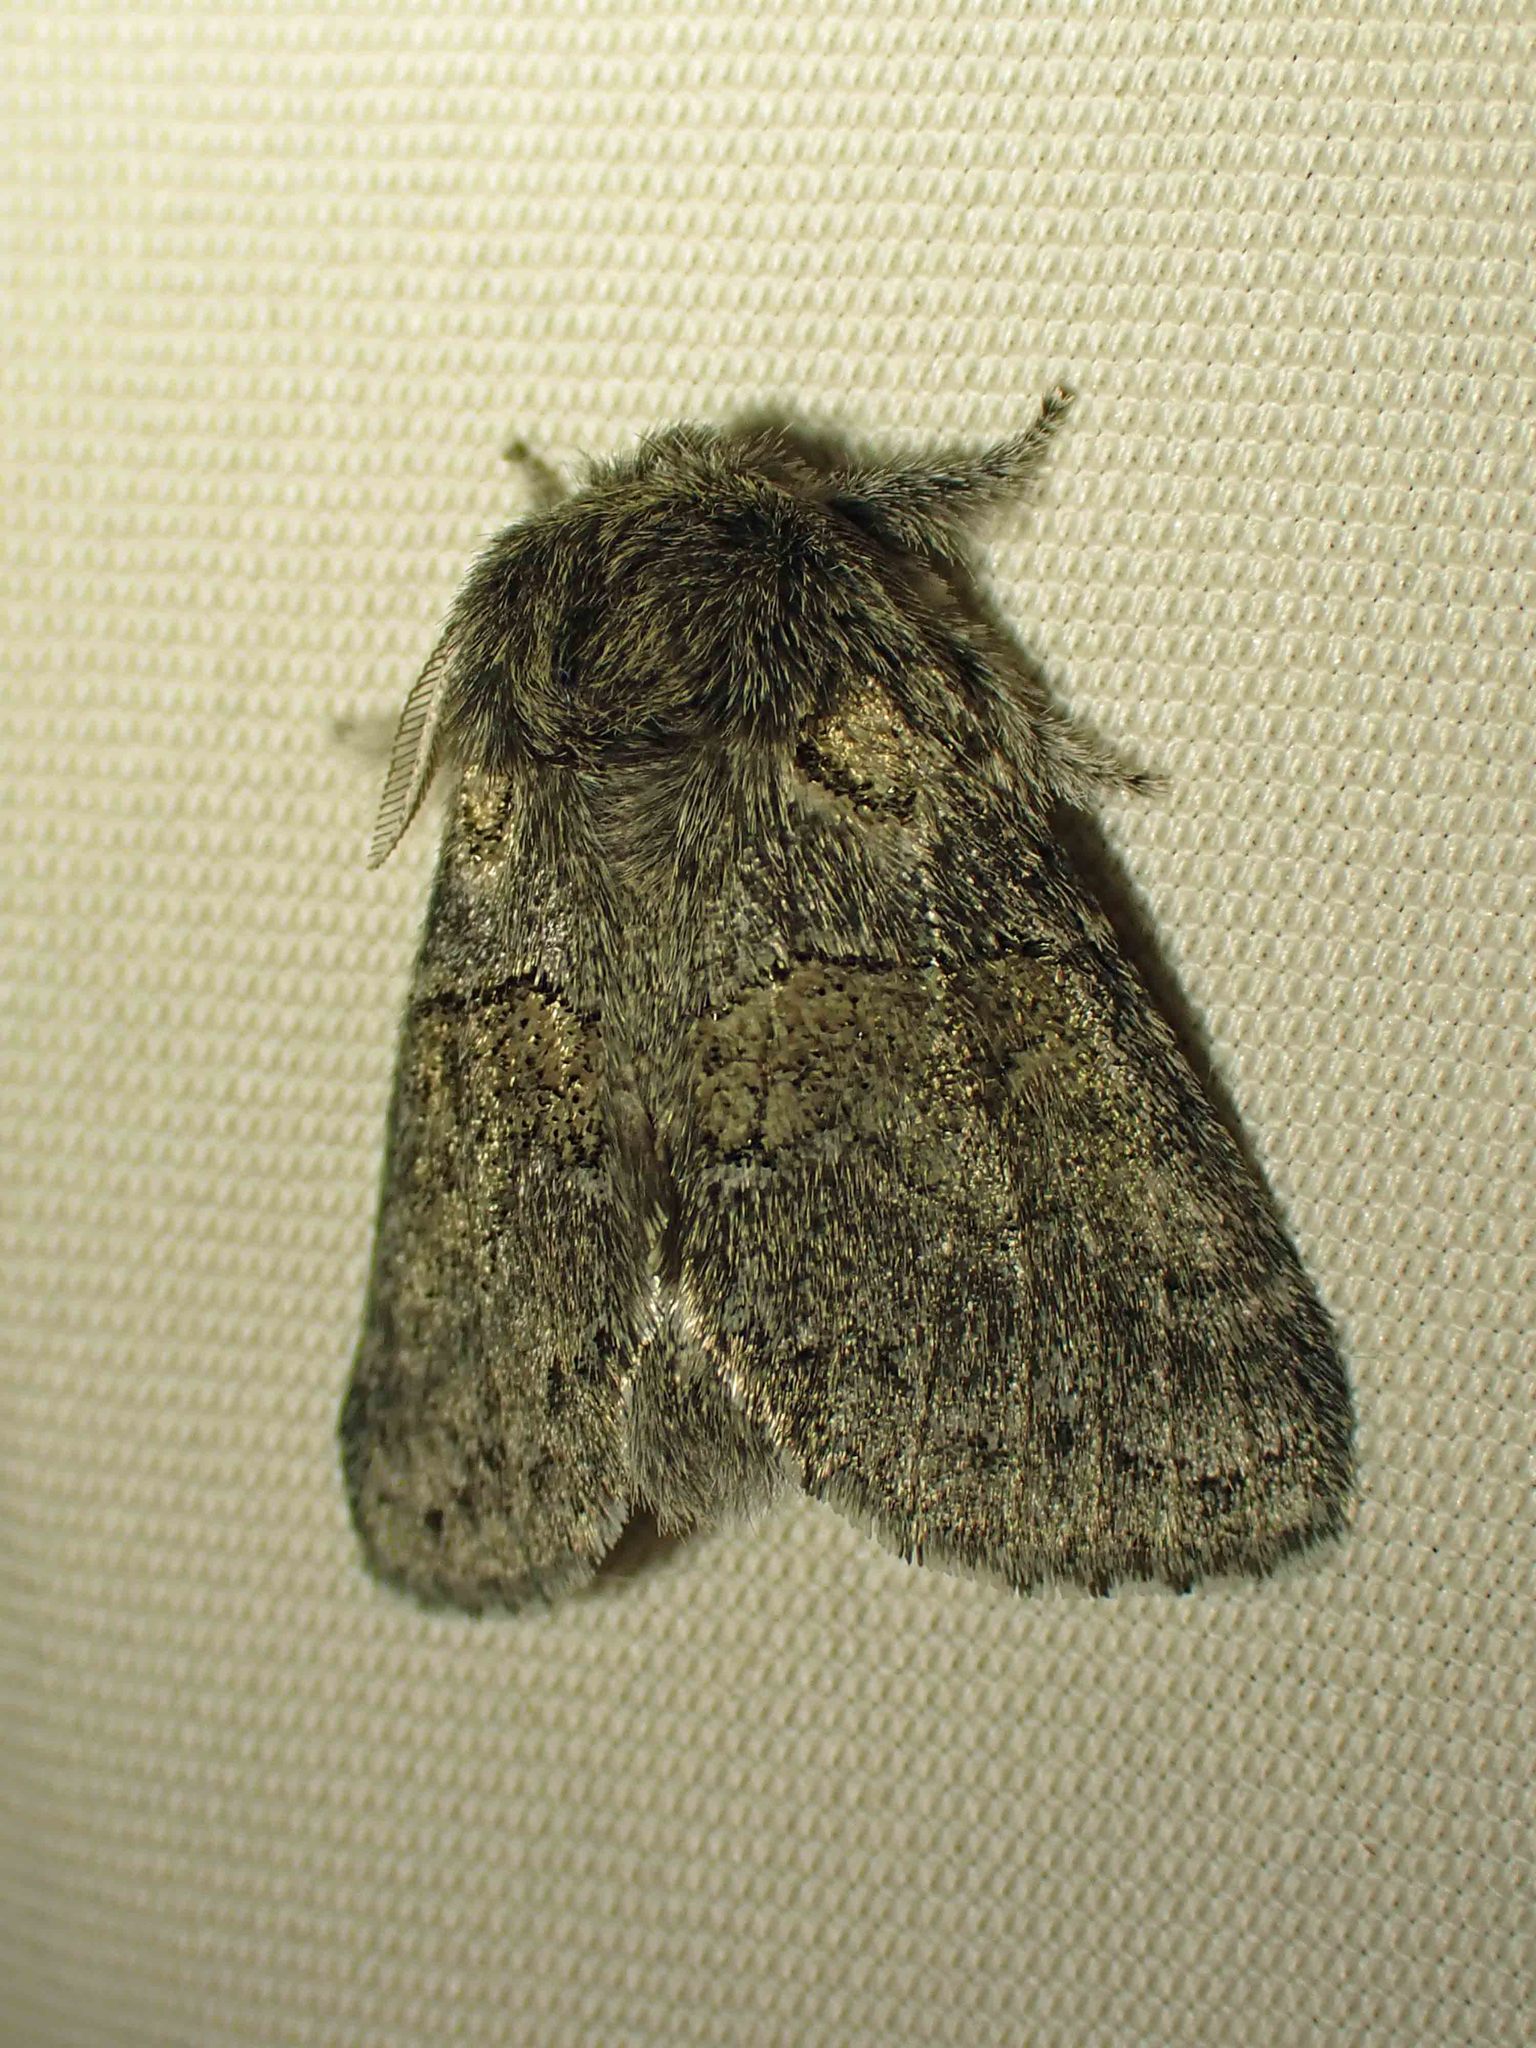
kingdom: Animalia
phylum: Arthropoda
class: Insecta
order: Lepidoptera
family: Notodontidae
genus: Gluphisia
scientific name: Gluphisia septentrionis
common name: Common gluphisia
